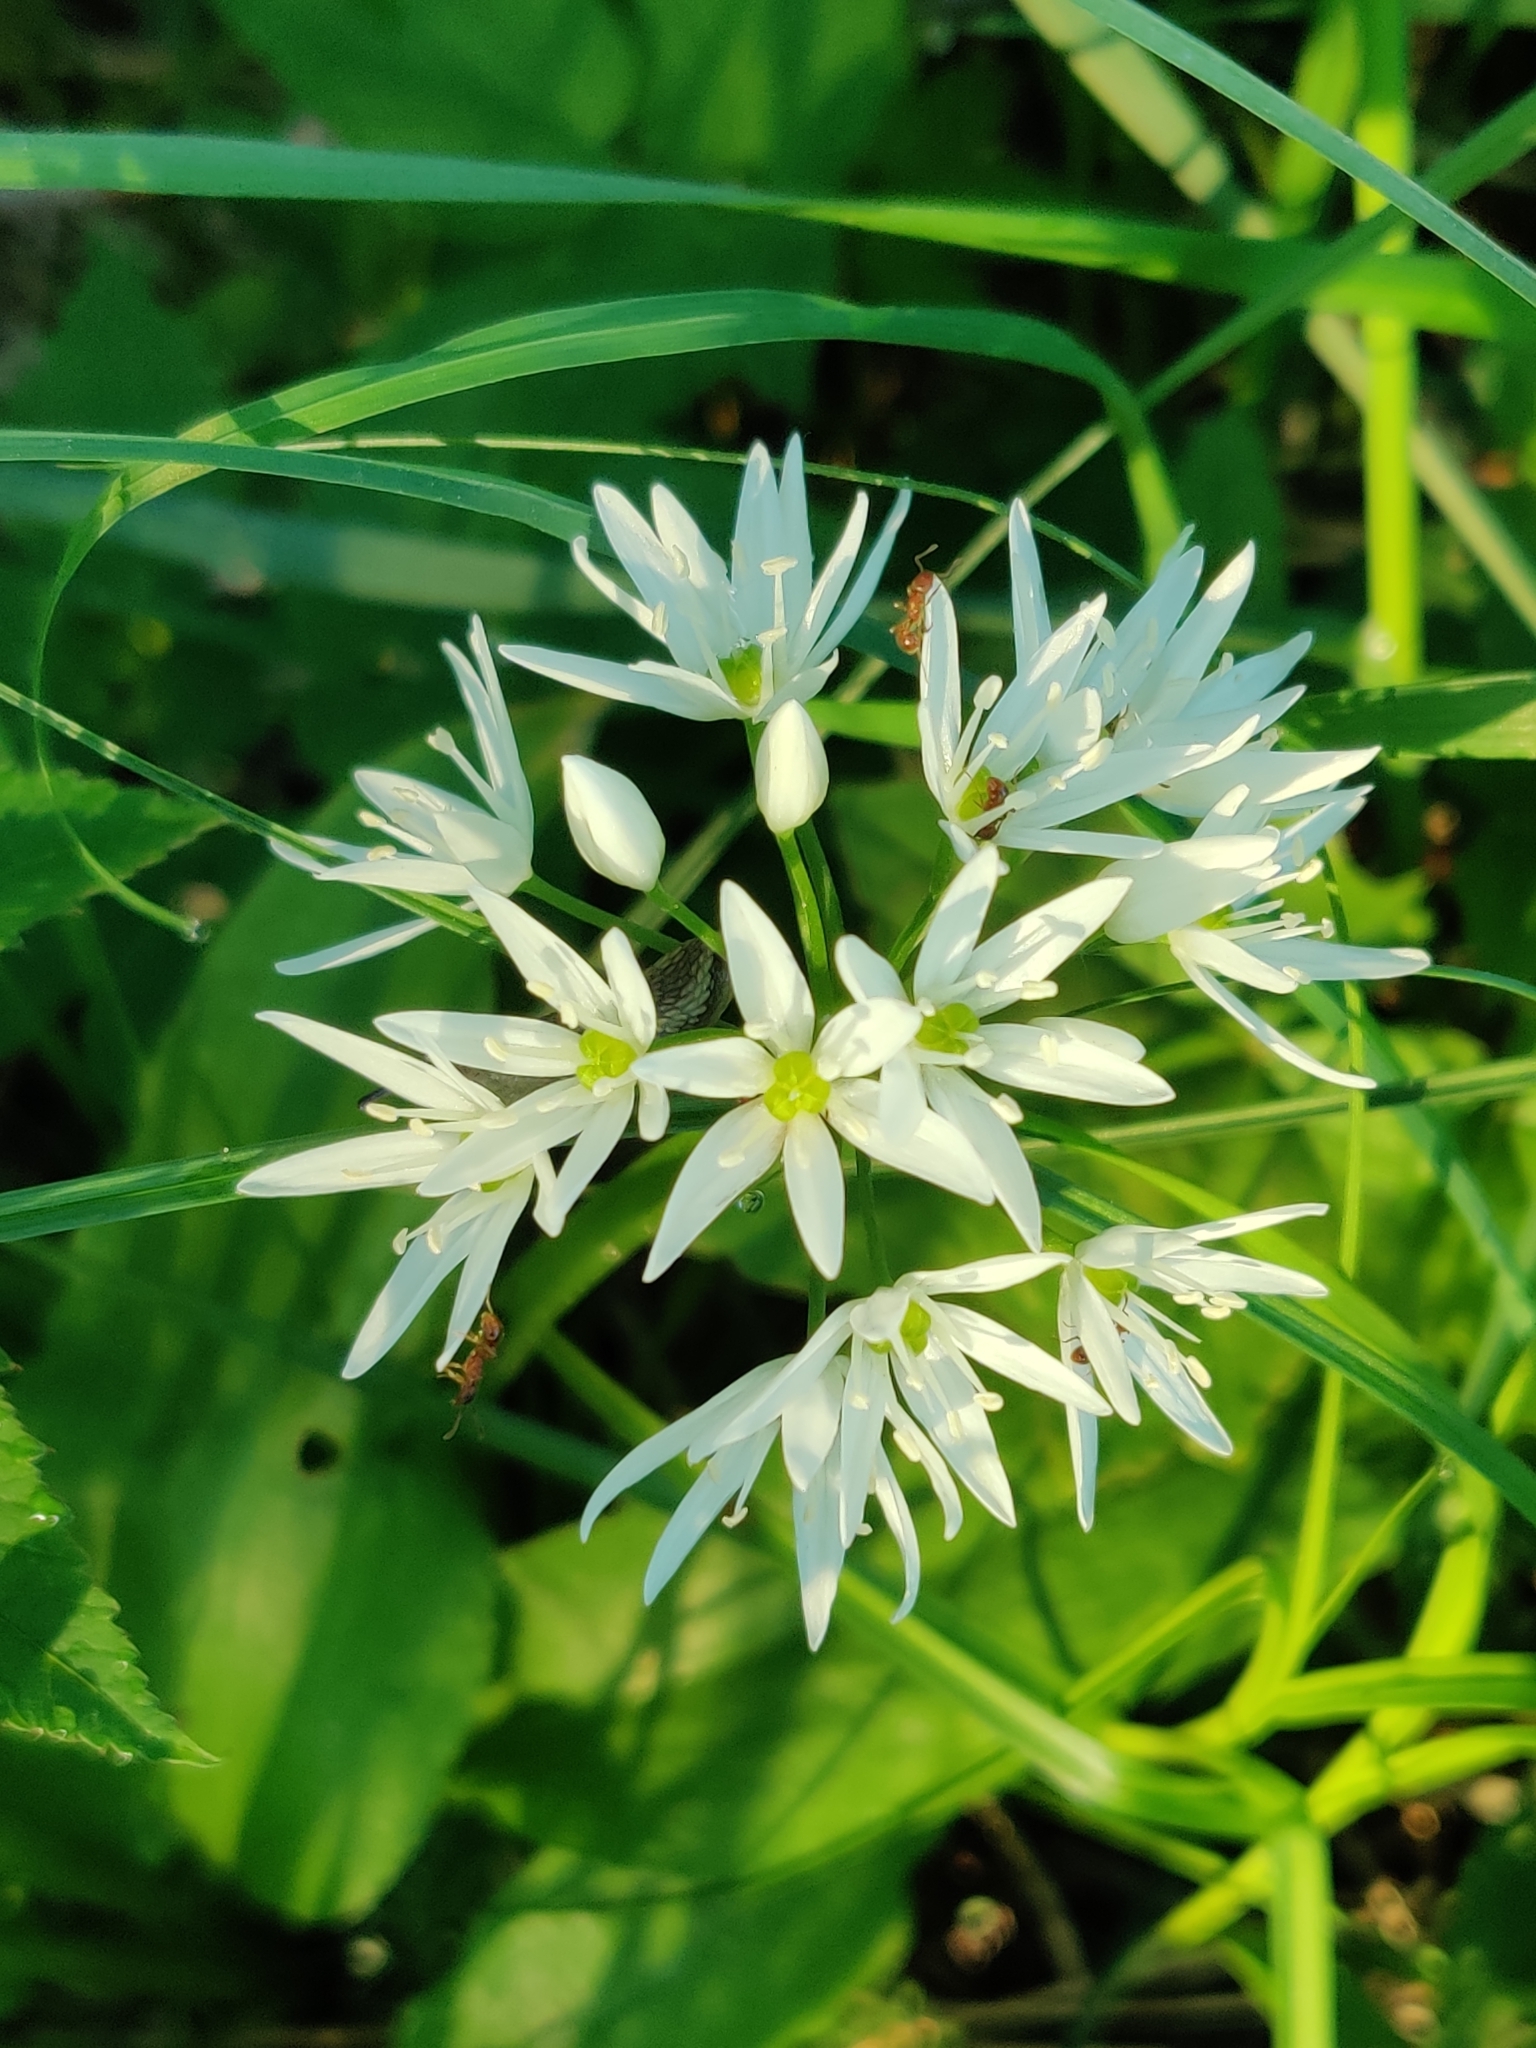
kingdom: Plantae
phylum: Tracheophyta
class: Liliopsida
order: Asparagales
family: Amaryllidaceae
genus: Allium
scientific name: Allium ursinum
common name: Ramsons
